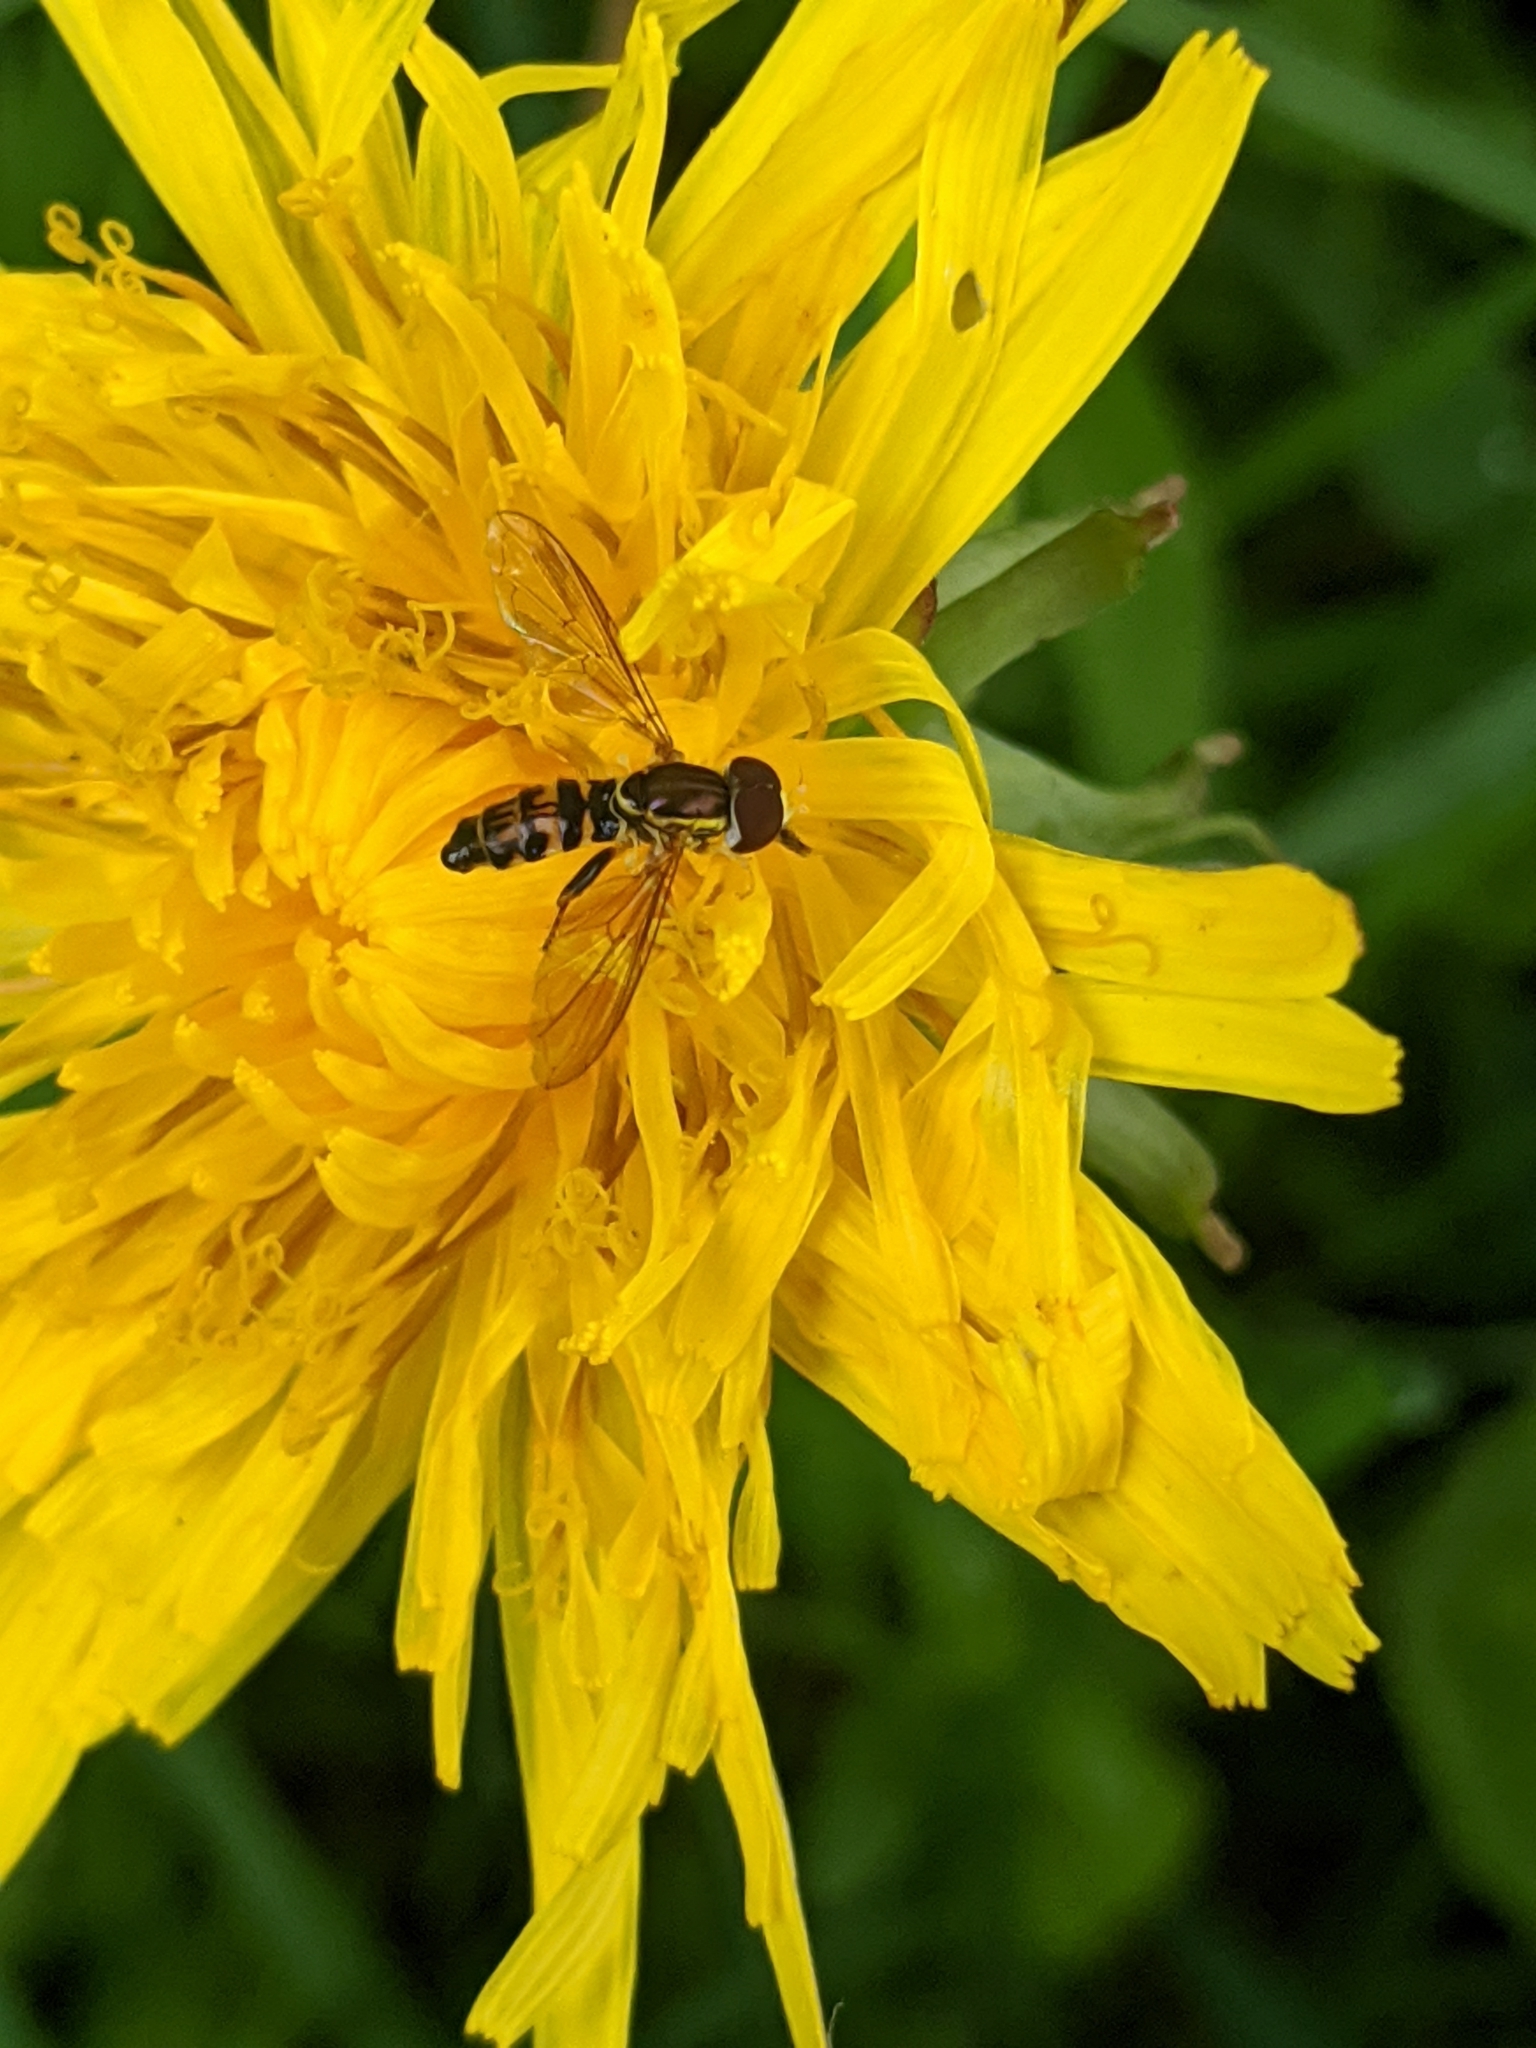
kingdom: Animalia
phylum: Arthropoda
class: Insecta
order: Diptera
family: Syrphidae
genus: Toxomerus
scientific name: Toxomerus geminatus
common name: Eastern calligrapher
